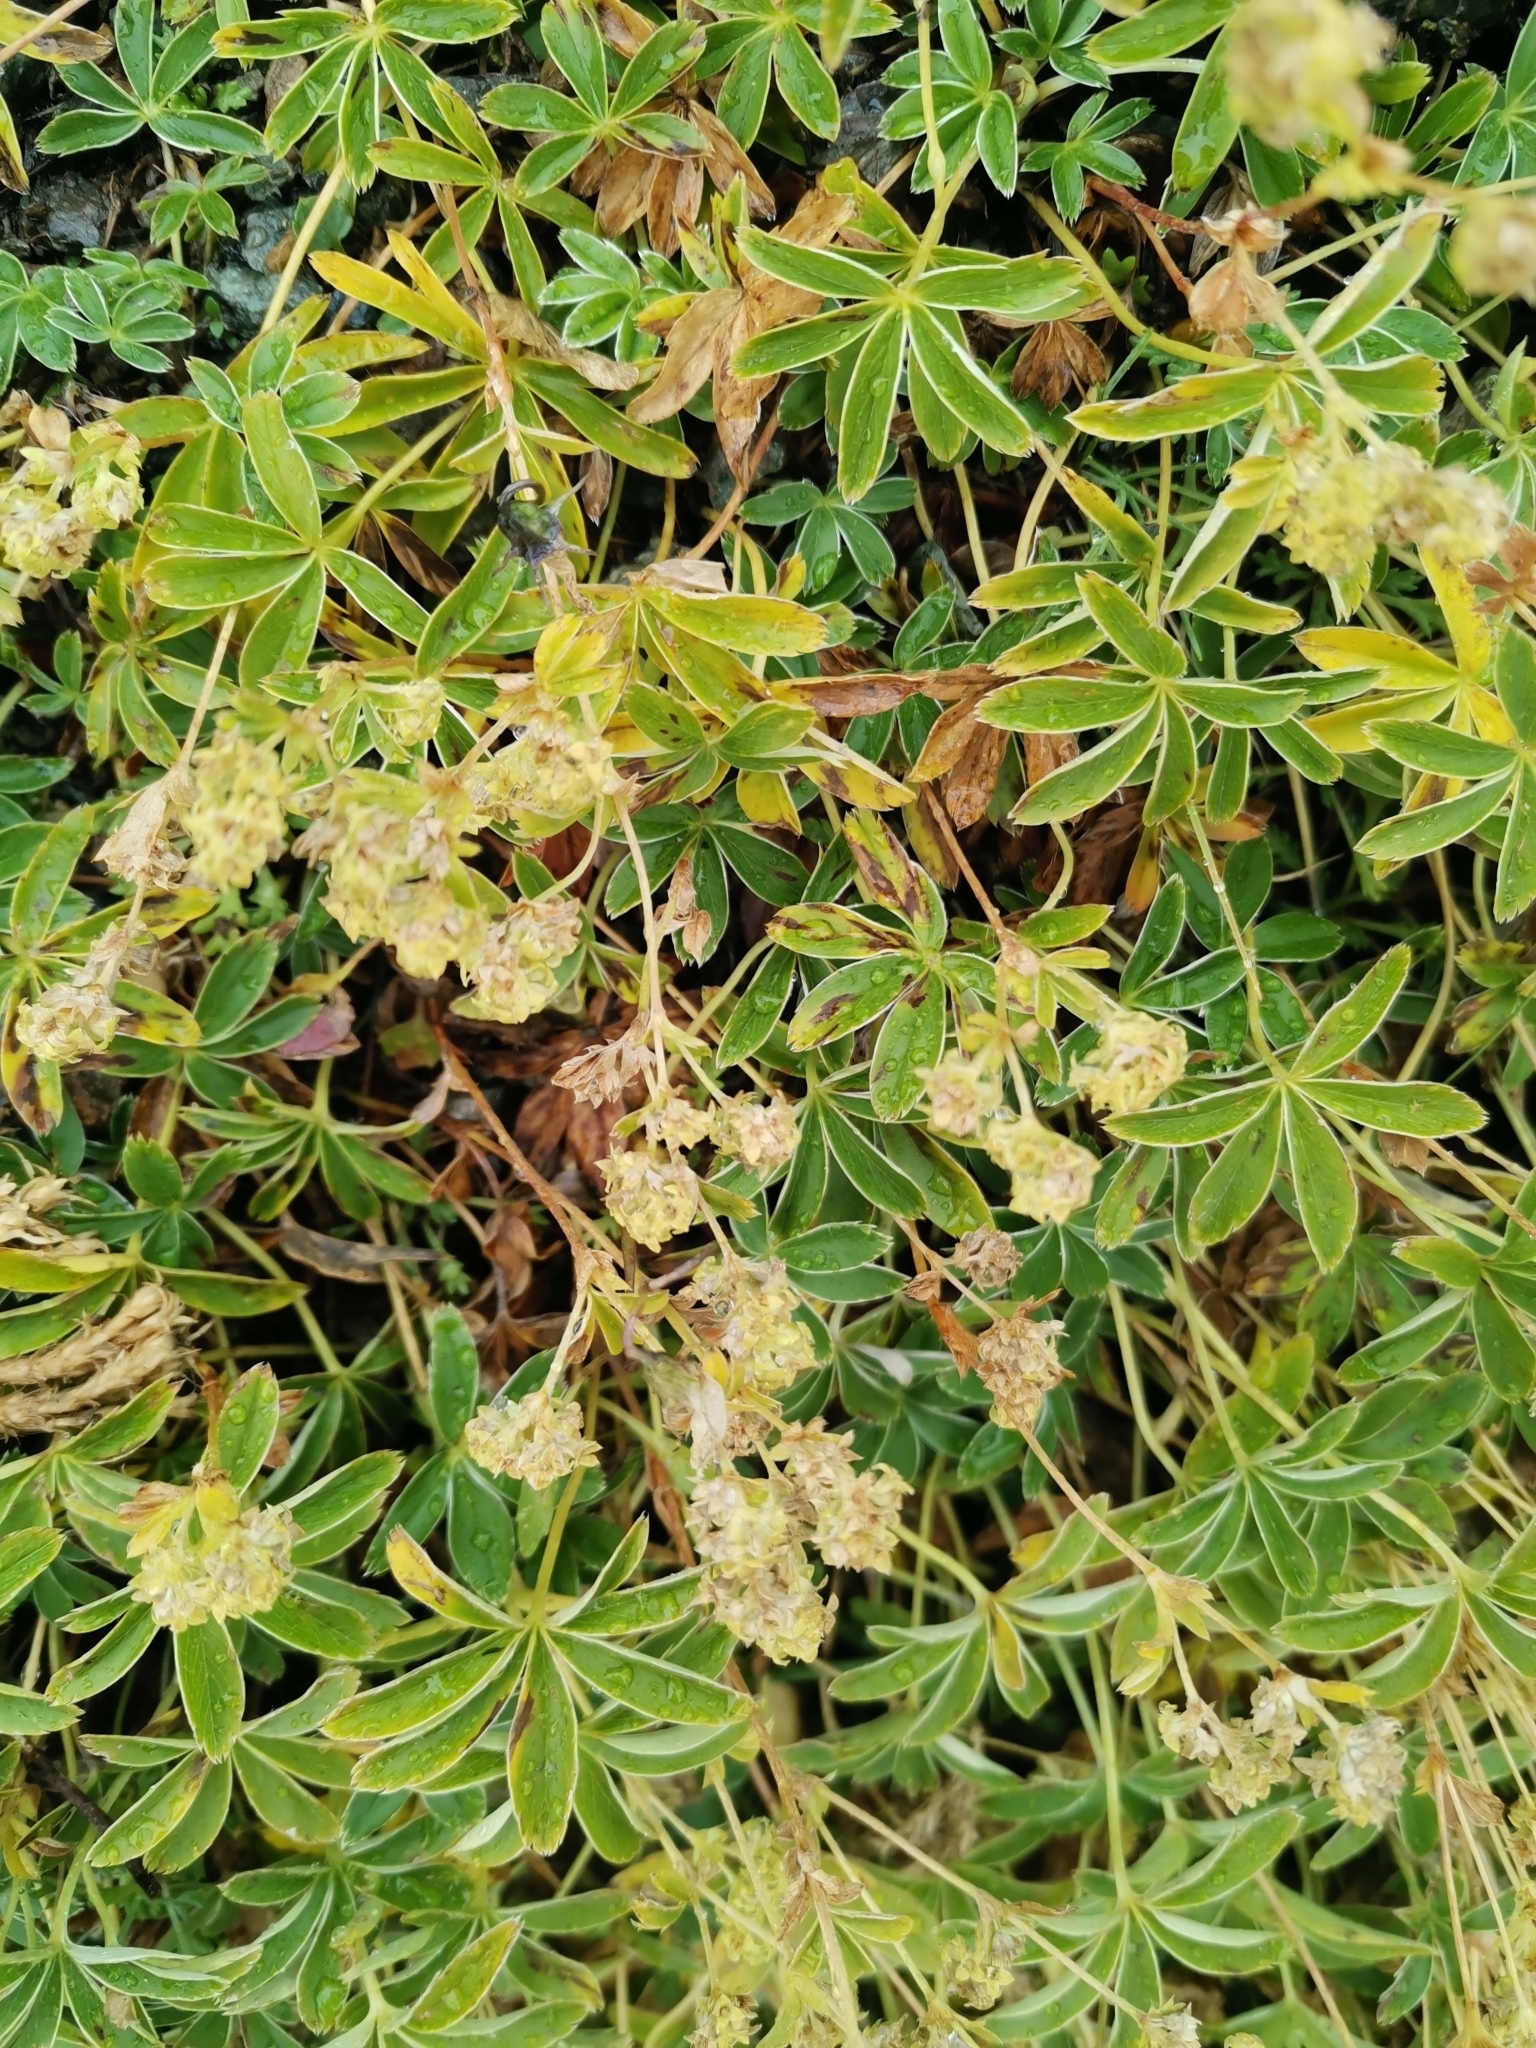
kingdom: Plantae
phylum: Tracheophyta
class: Magnoliopsida
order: Rosales
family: Rosaceae
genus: Alchemilla
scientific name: Alchemilla alpina
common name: Alpine lady's-mantle
